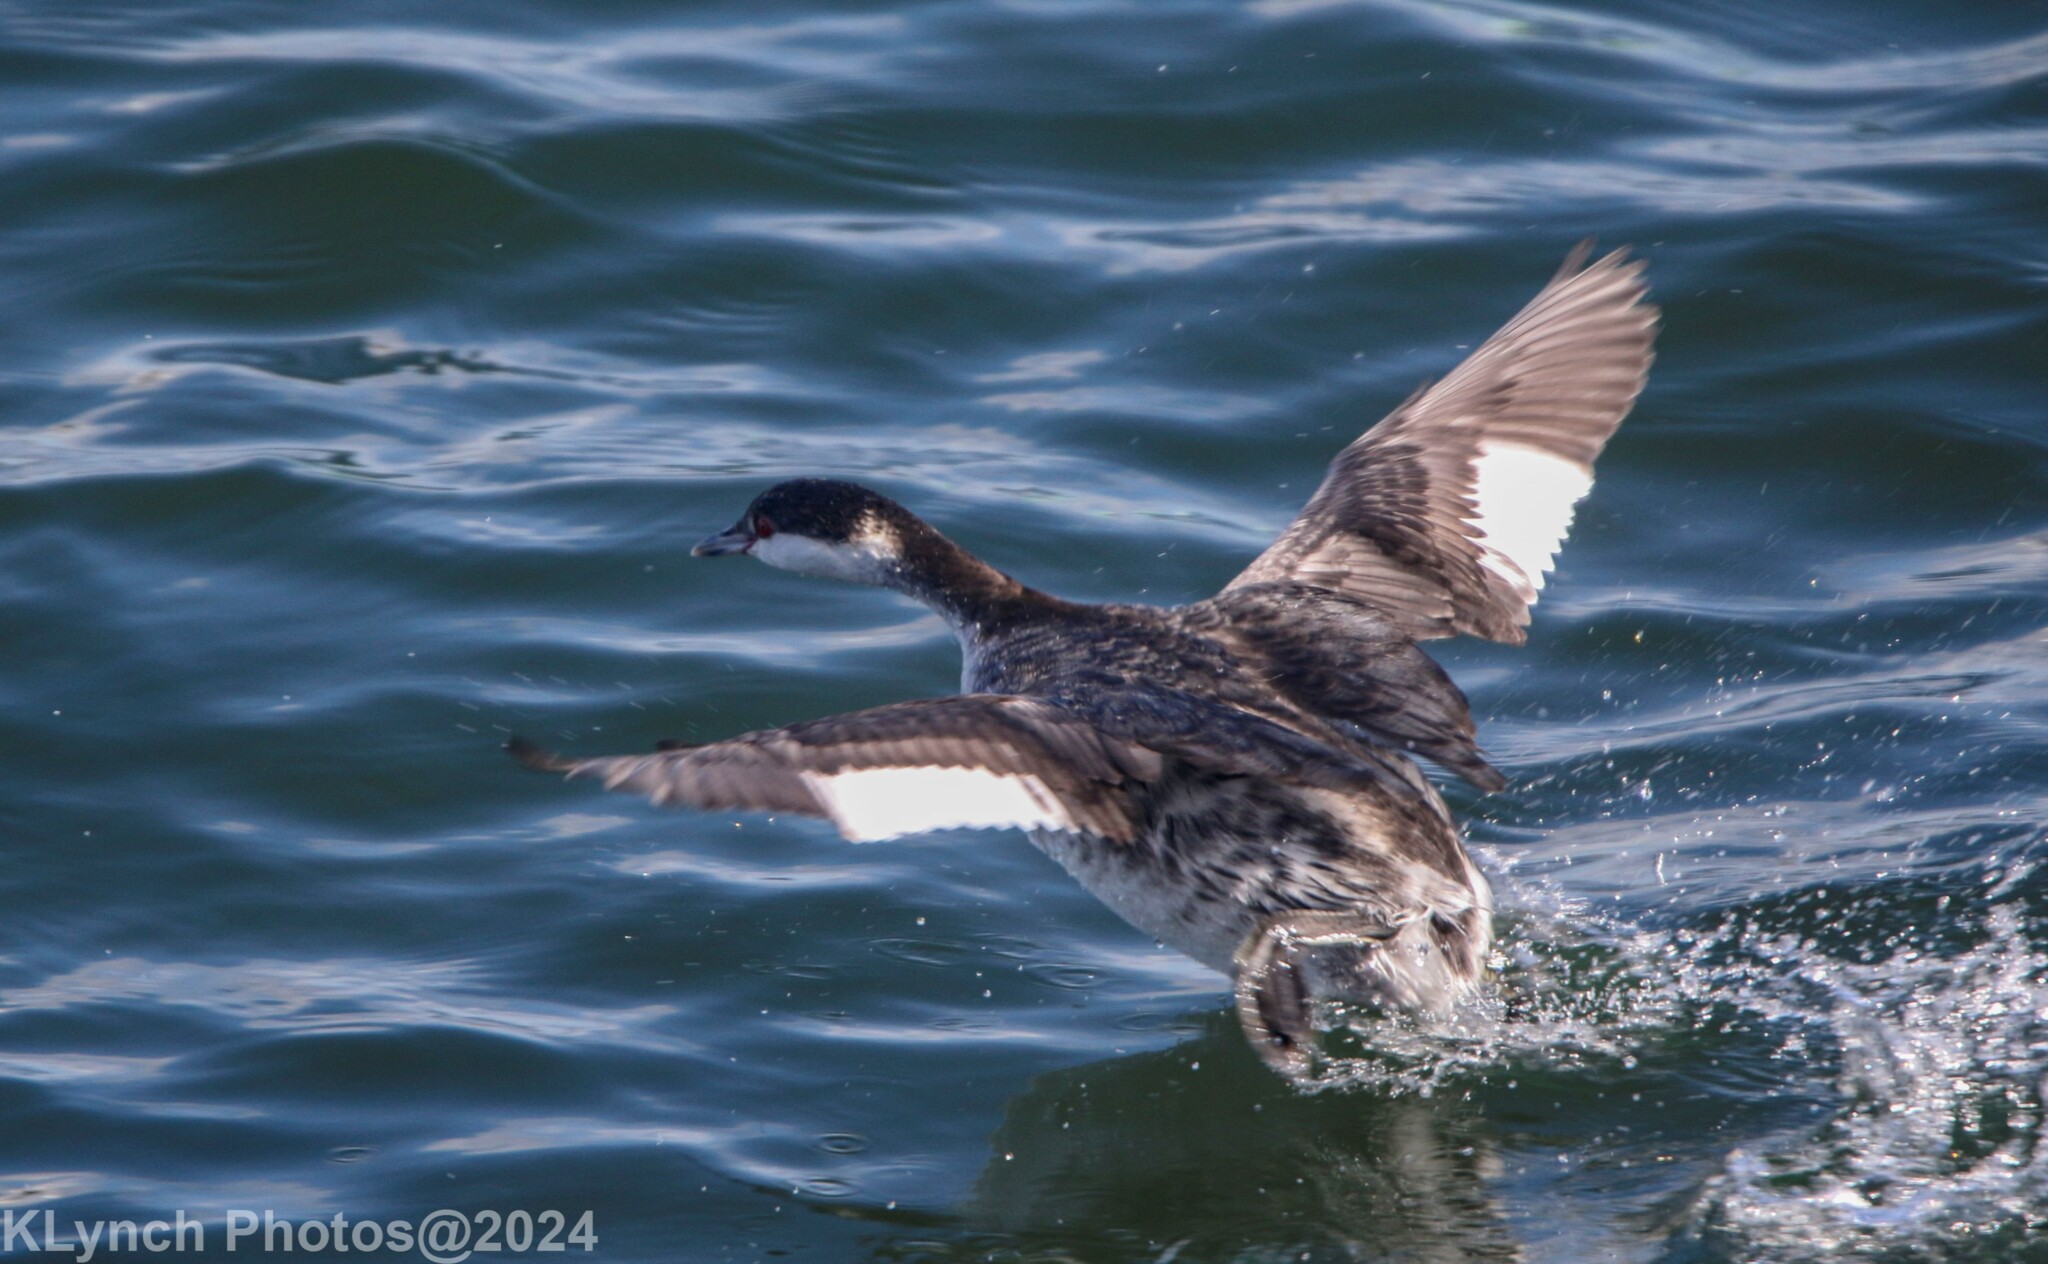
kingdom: Animalia
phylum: Chordata
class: Aves
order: Podicipediformes
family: Podicipedidae
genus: Podiceps
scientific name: Podiceps auritus
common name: Horned grebe
